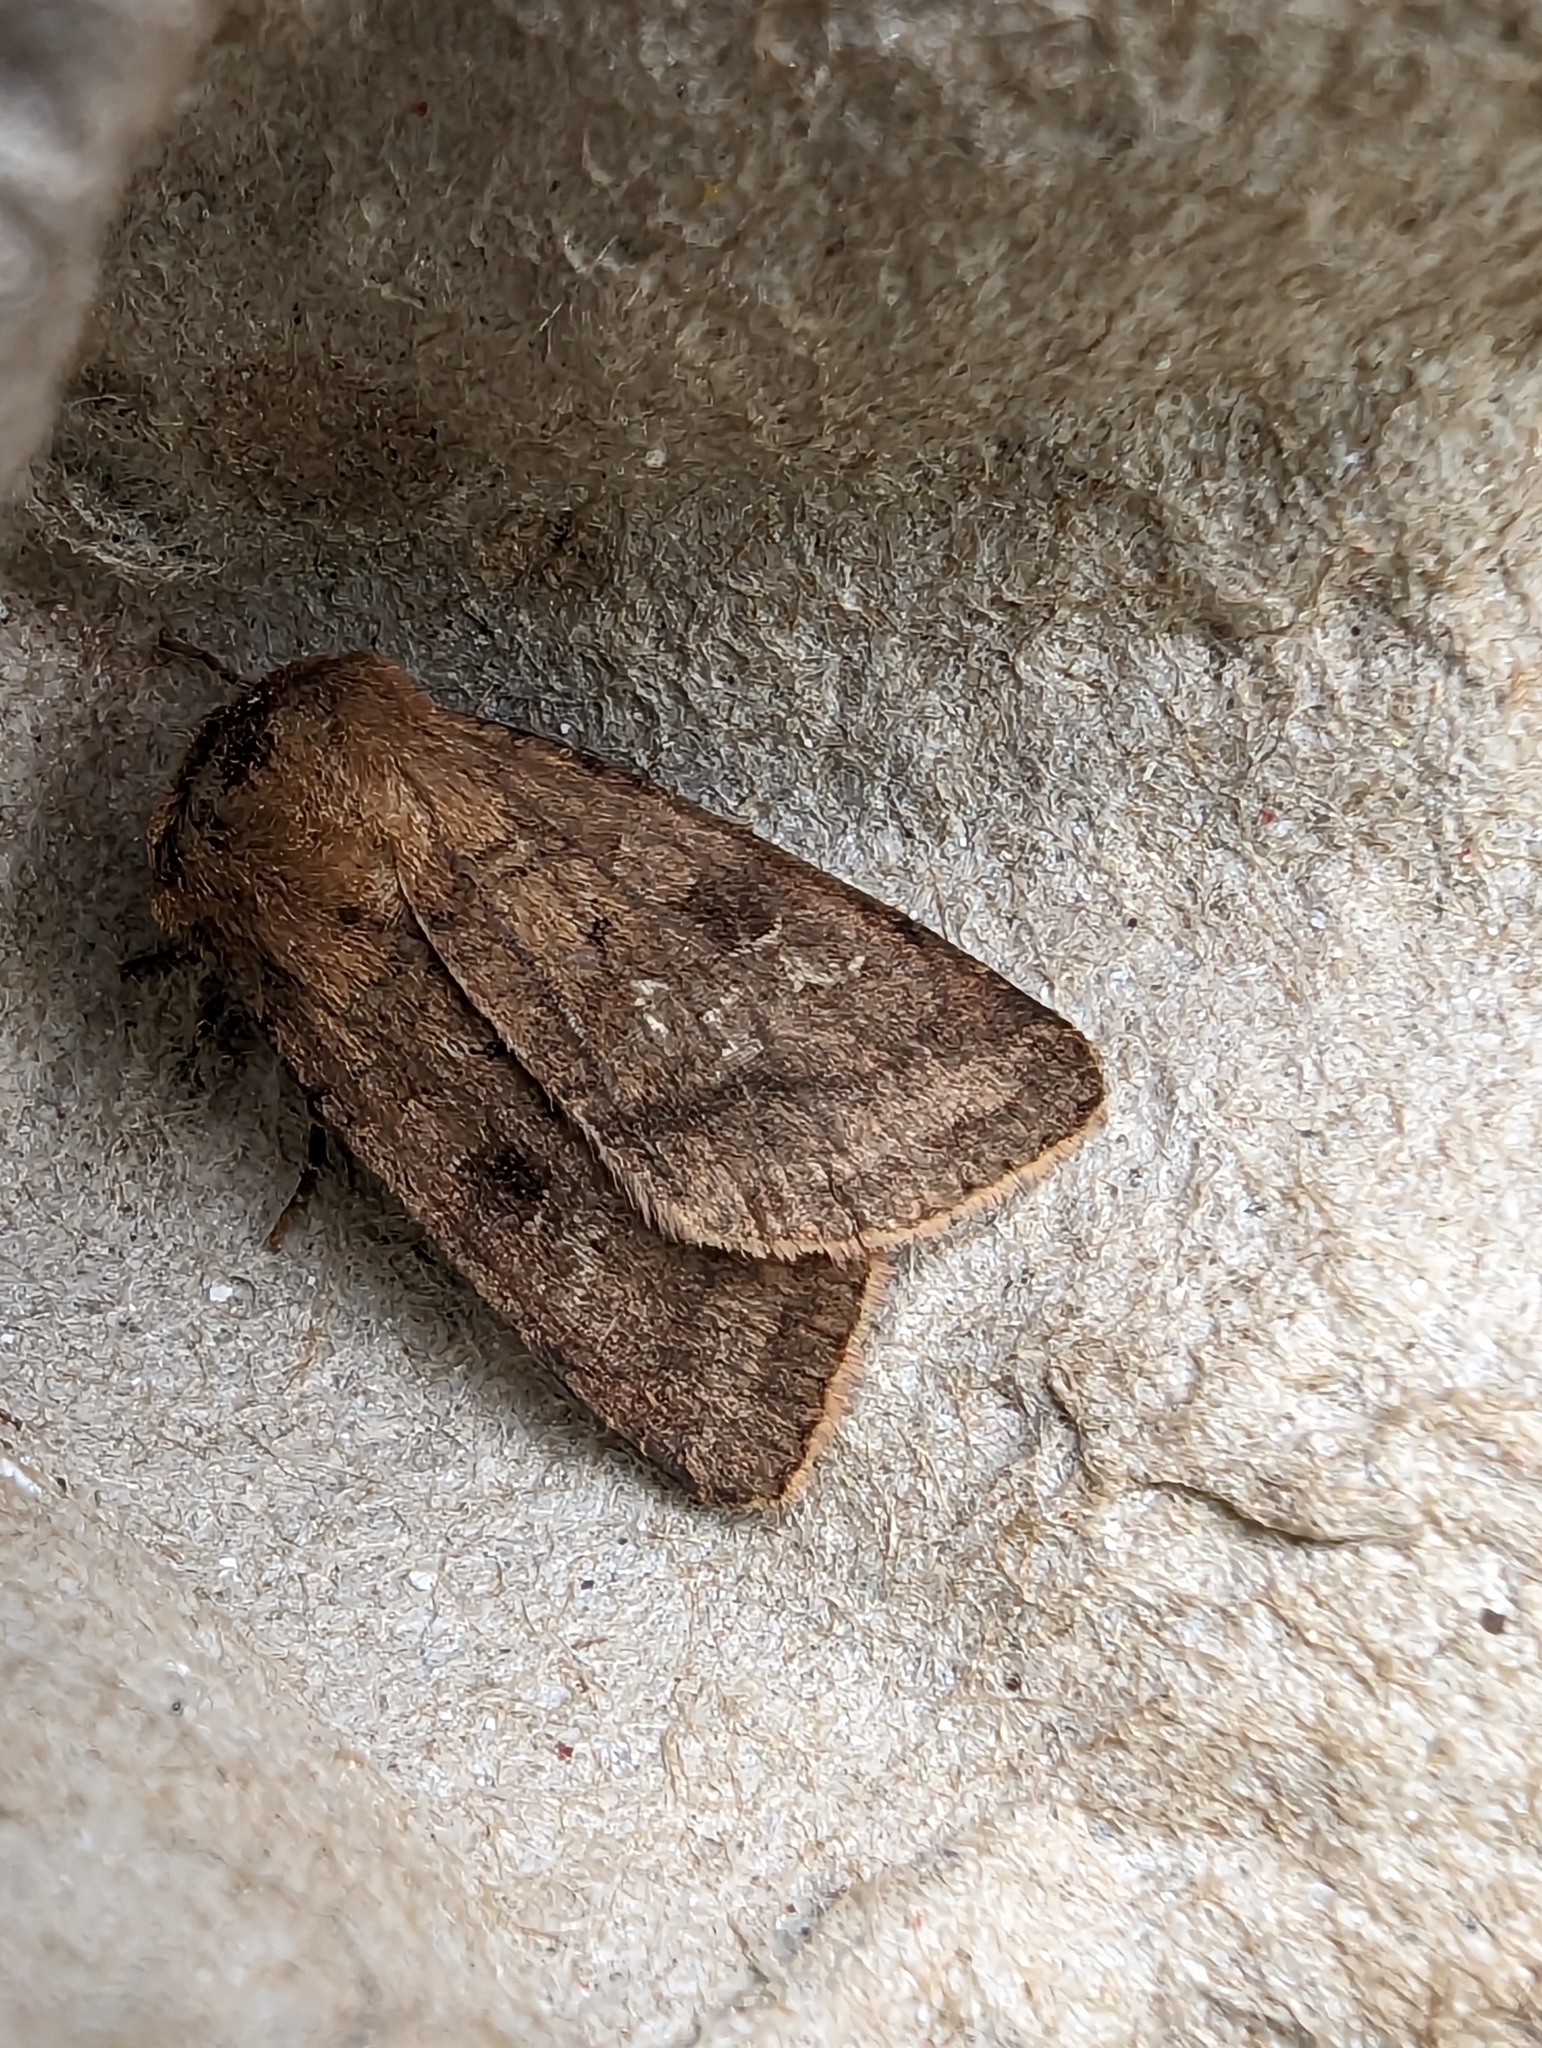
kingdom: Animalia
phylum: Arthropoda
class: Insecta
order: Lepidoptera
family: Noctuidae
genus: Diarsia
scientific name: Diarsia rubi
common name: Small square-spot
